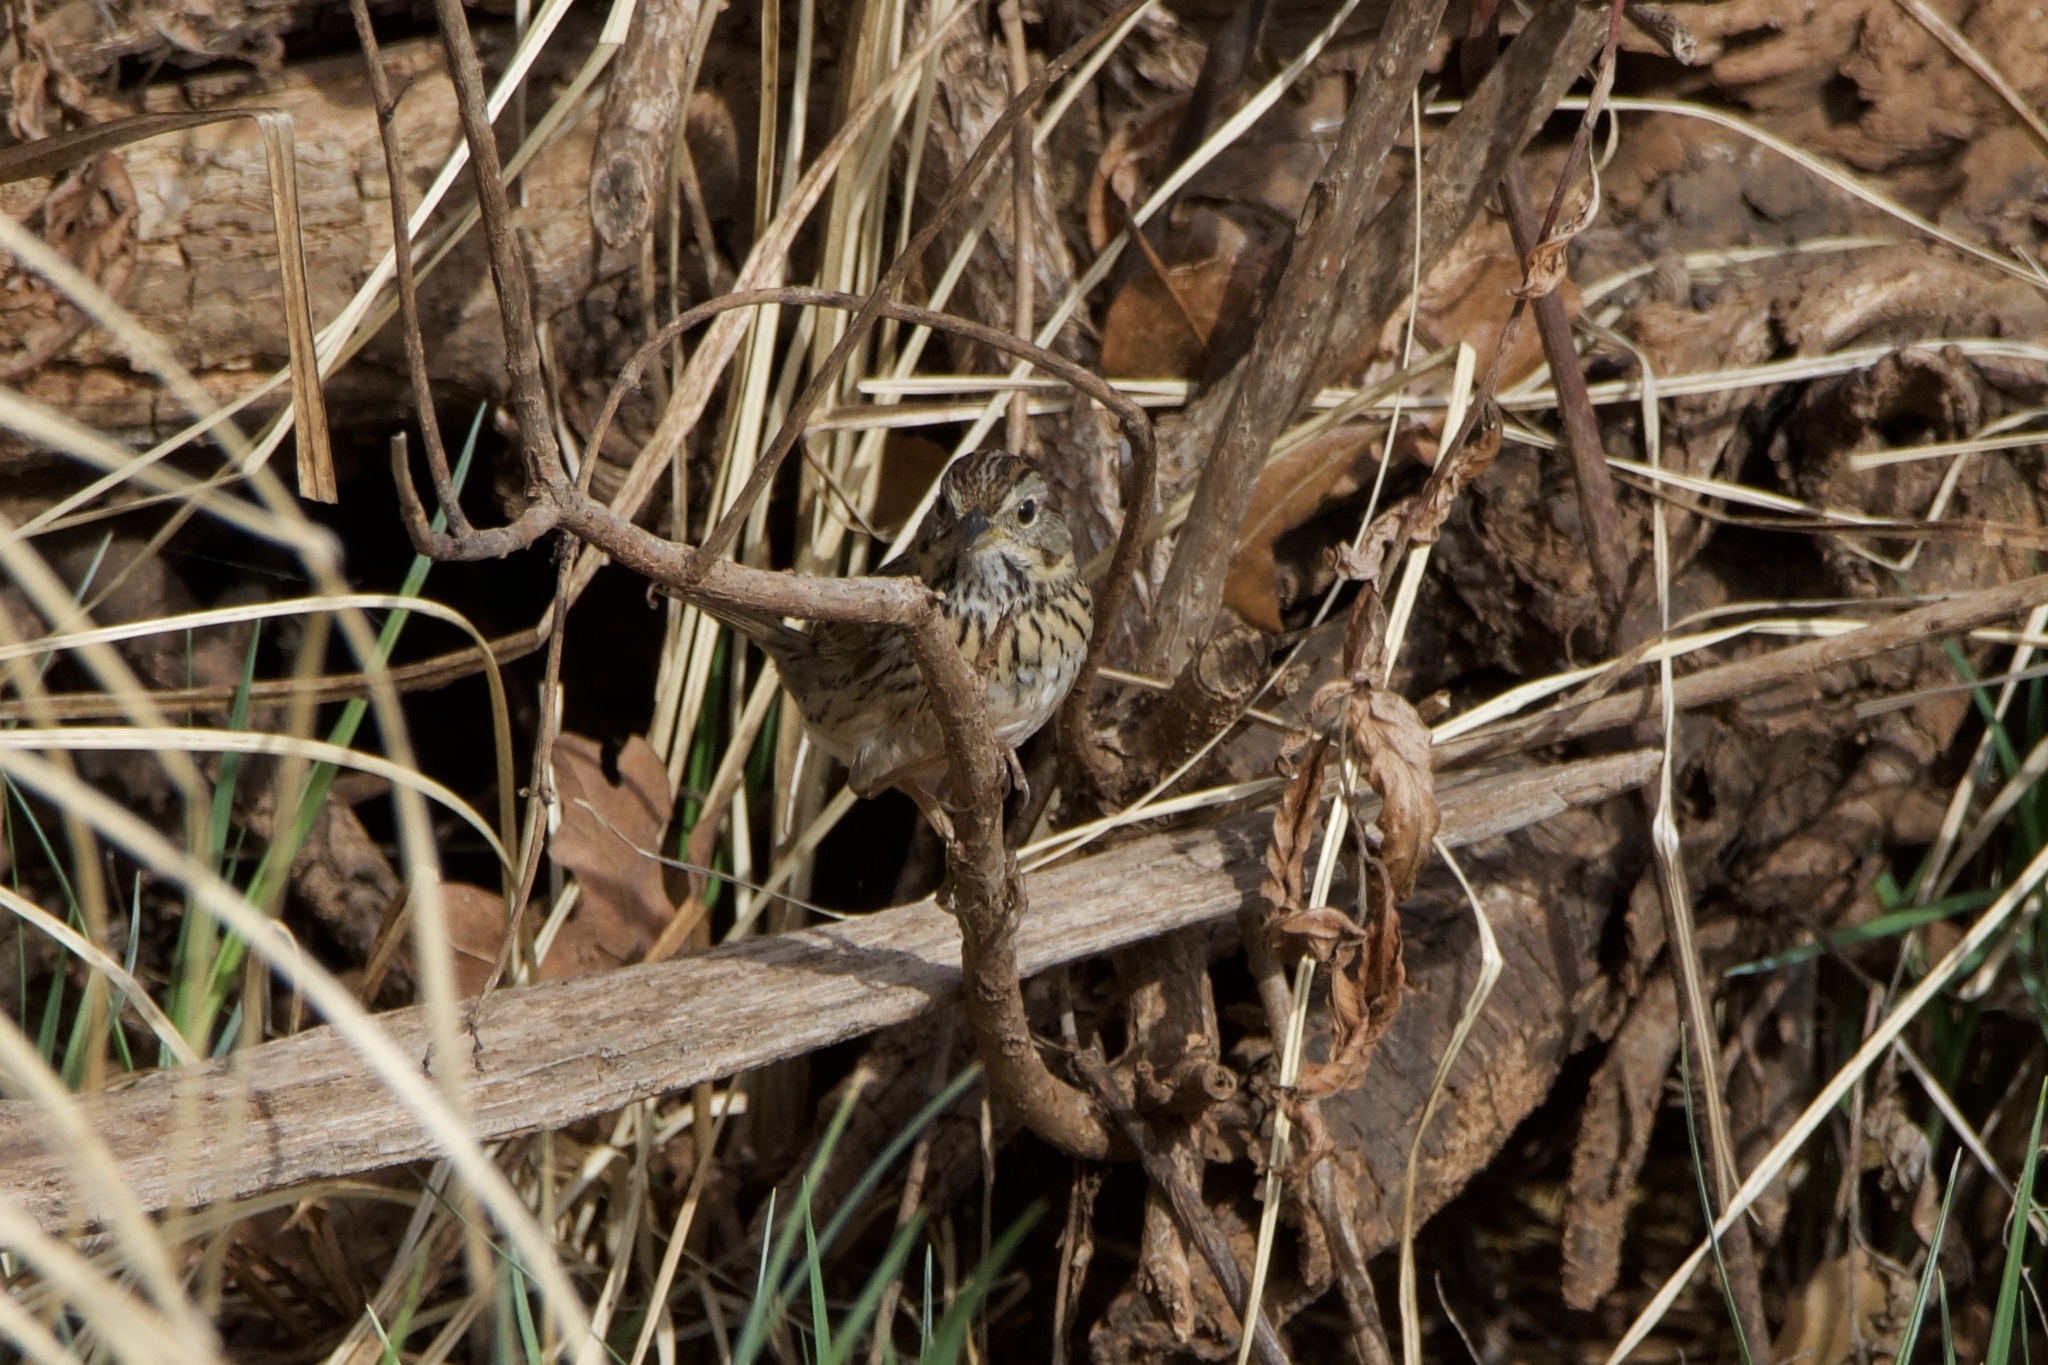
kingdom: Animalia
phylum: Chordata
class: Aves
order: Passeriformes
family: Passerellidae
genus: Melospiza
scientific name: Melospiza lincolnii
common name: Lincoln's sparrow
